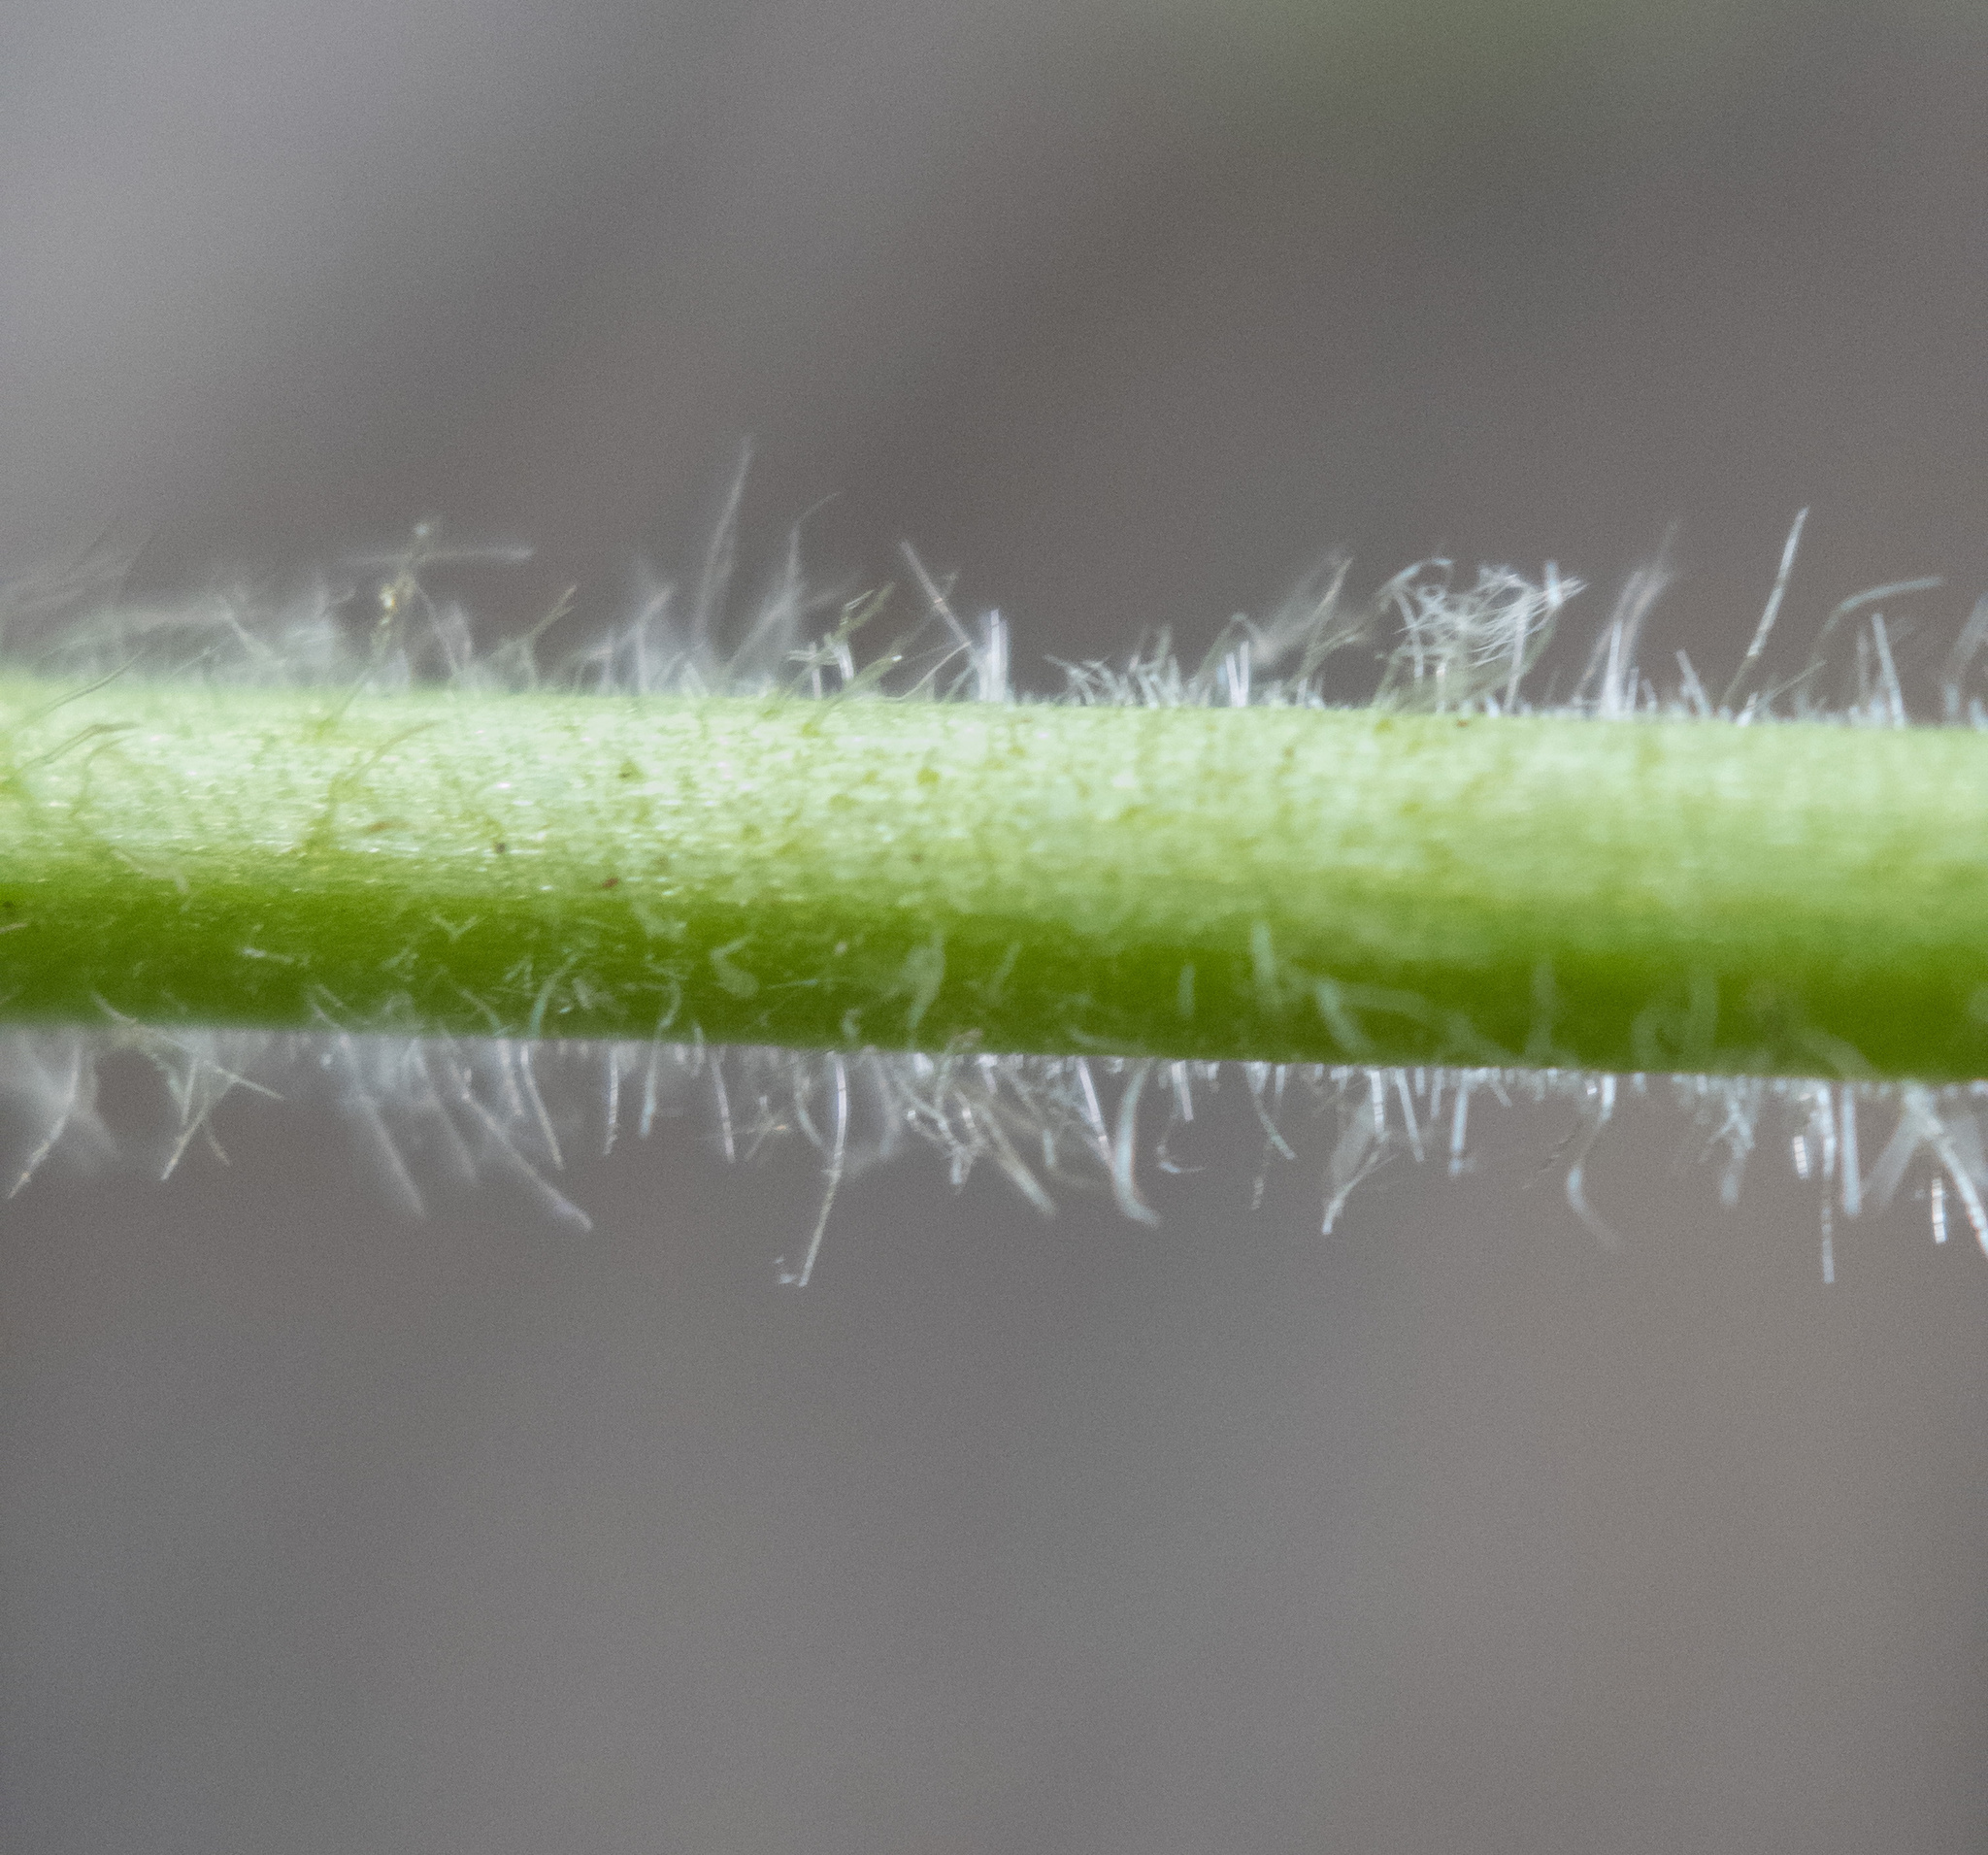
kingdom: Plantae
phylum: Tracheophyta
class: Magnoliopsida
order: Rosales
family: Rosaceae
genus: Geum
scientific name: Geum canadense
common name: White avens
